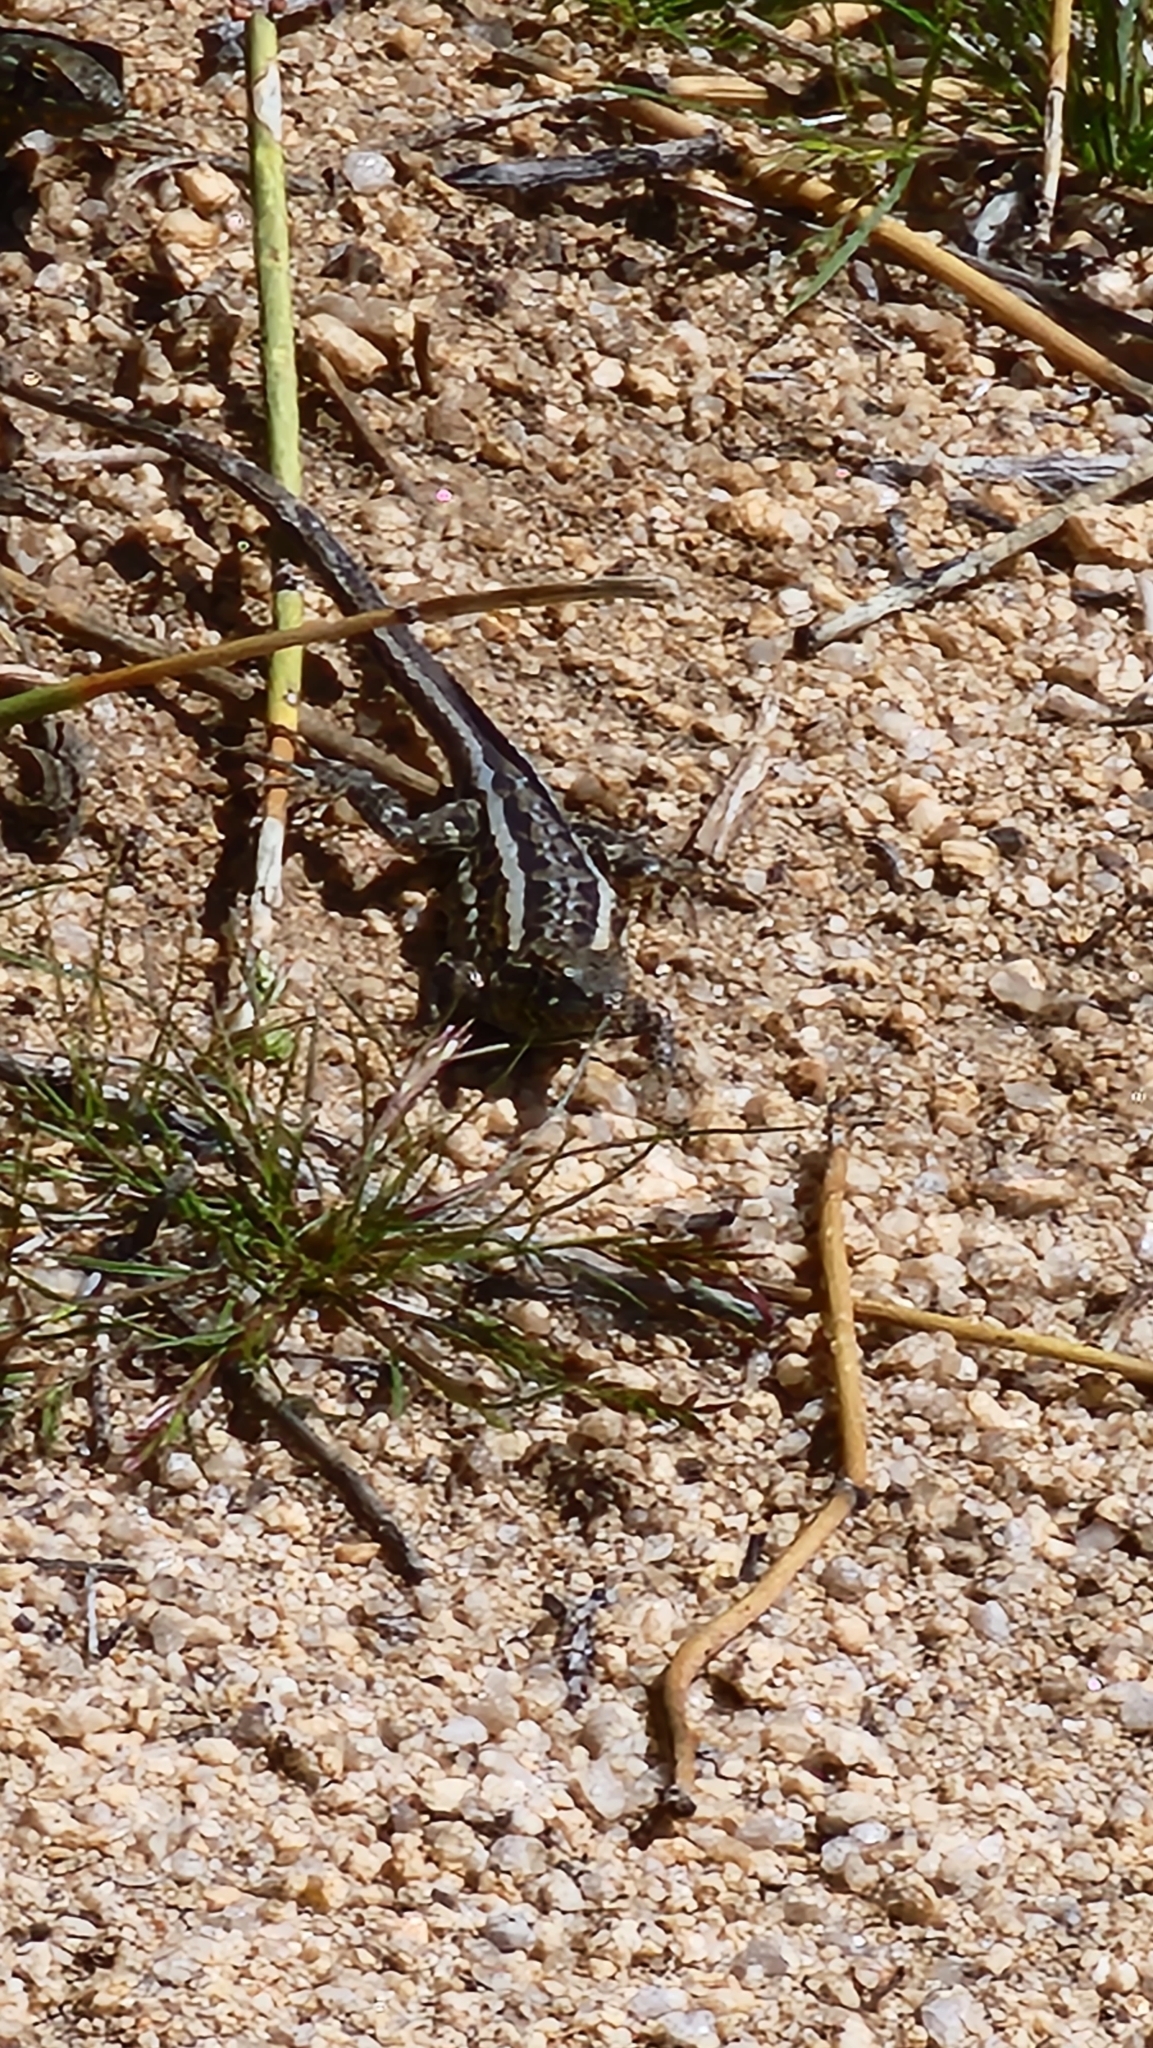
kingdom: Animalia
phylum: Chordata
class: Squamata
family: Phrynosomatidae
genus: Uta
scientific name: Uta stansburiana
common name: Side-blotched lizard
